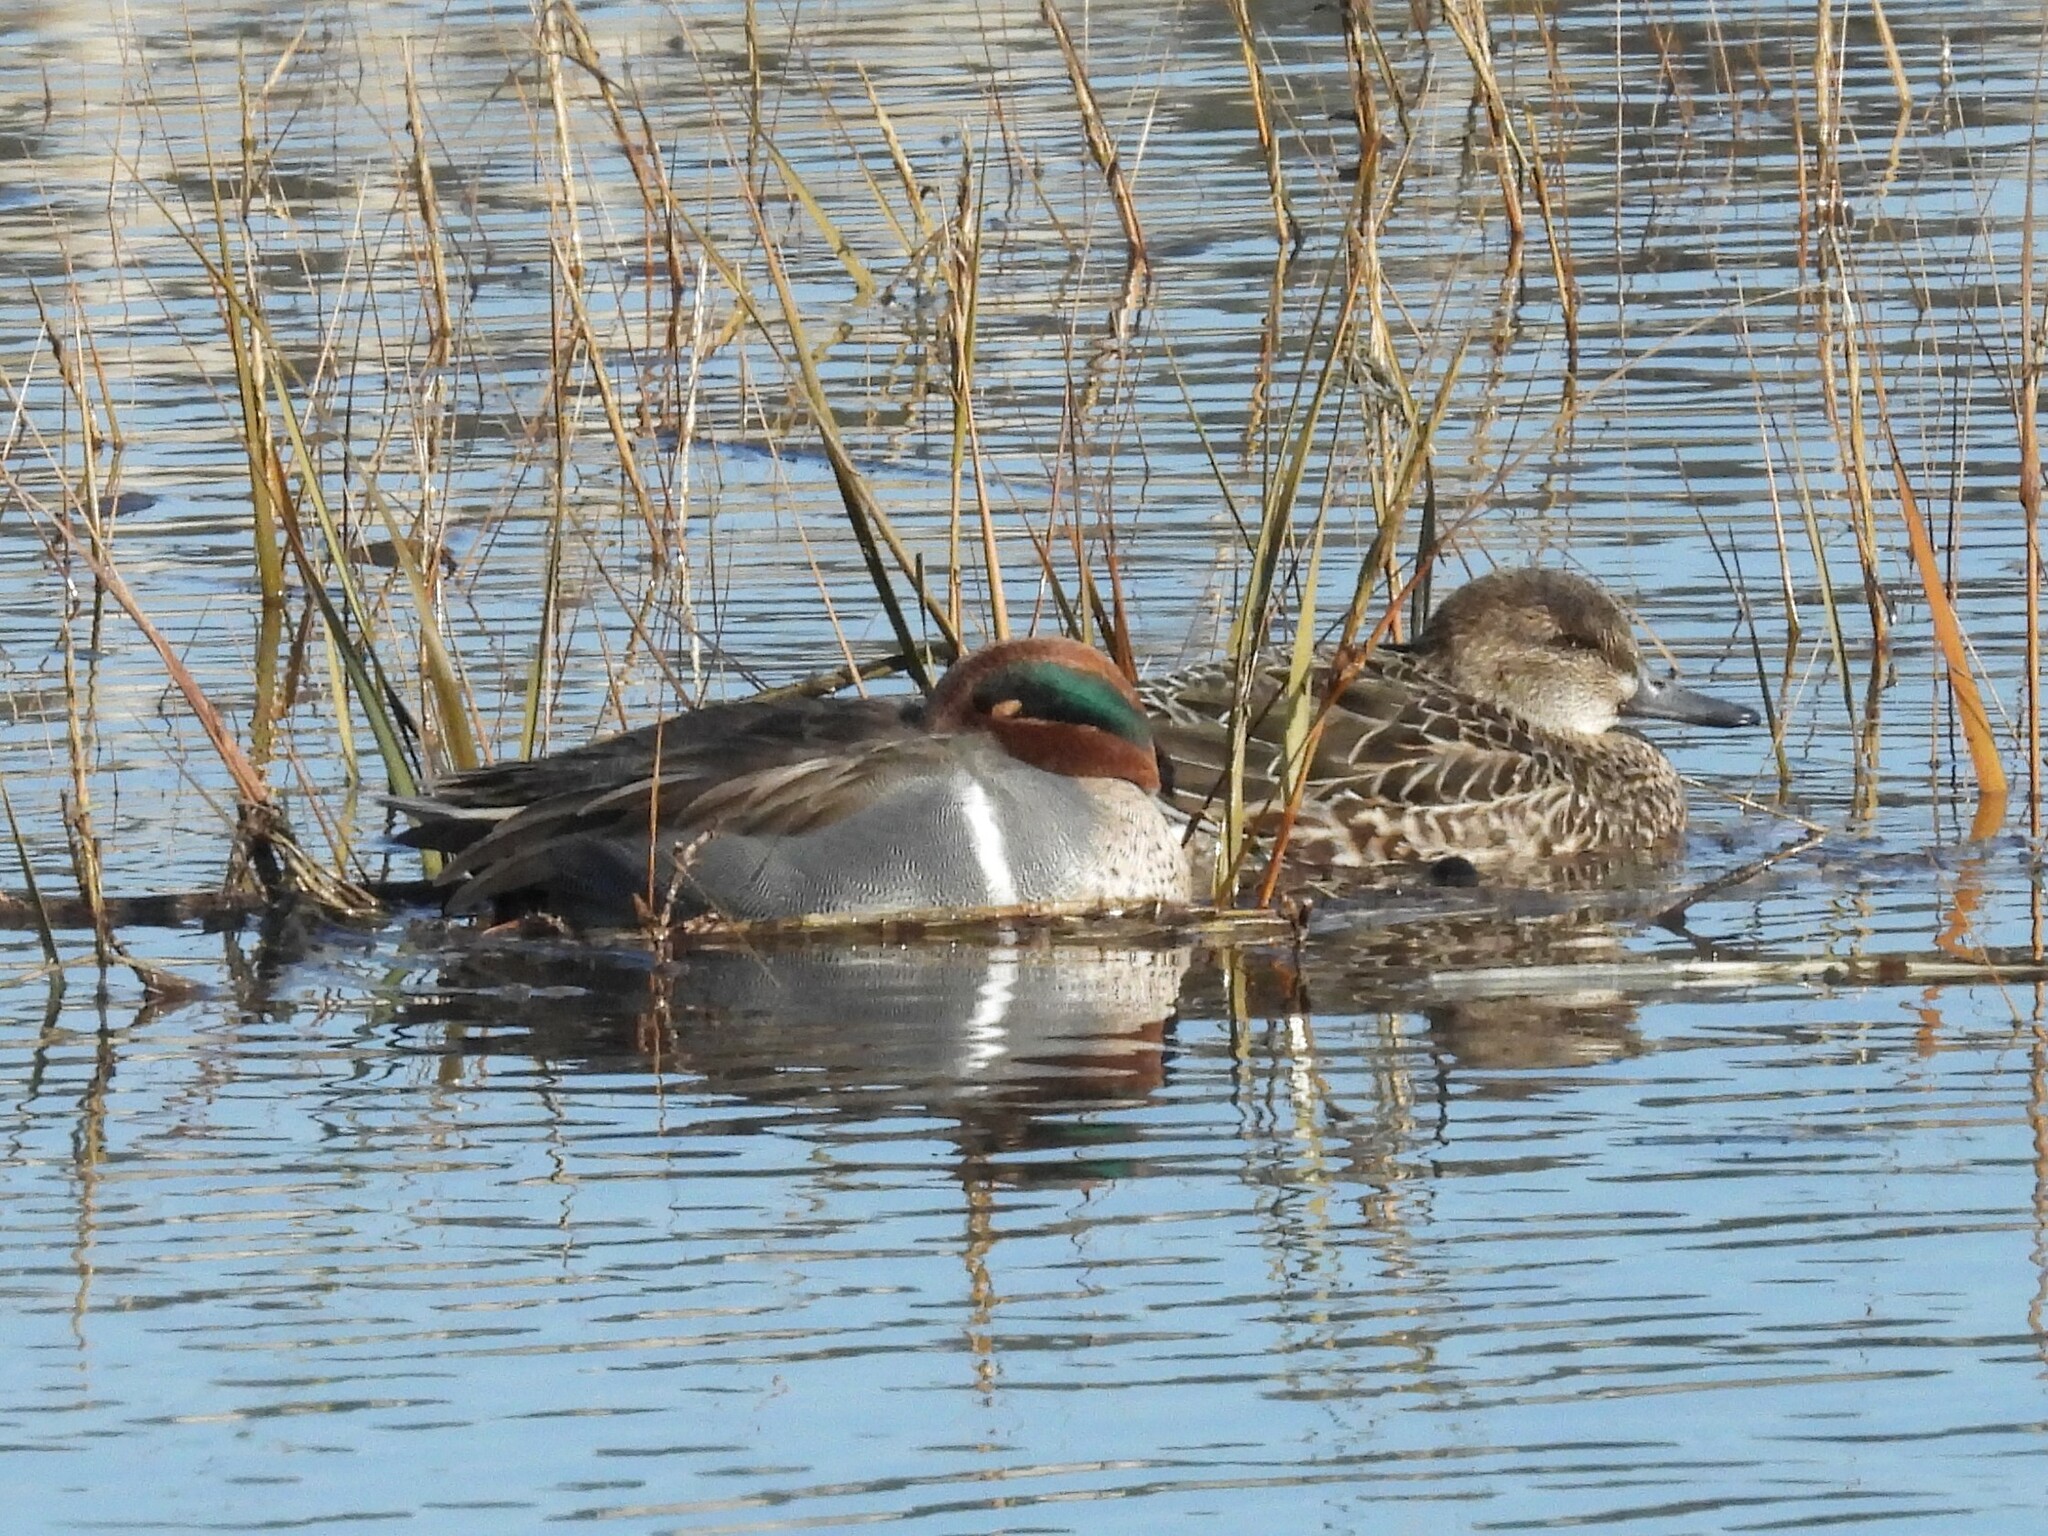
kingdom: Animalia
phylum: Chordata
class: Aves
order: Anseriformes
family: Anatidae
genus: Anas
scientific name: Anas crecca
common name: Eurasian teal
